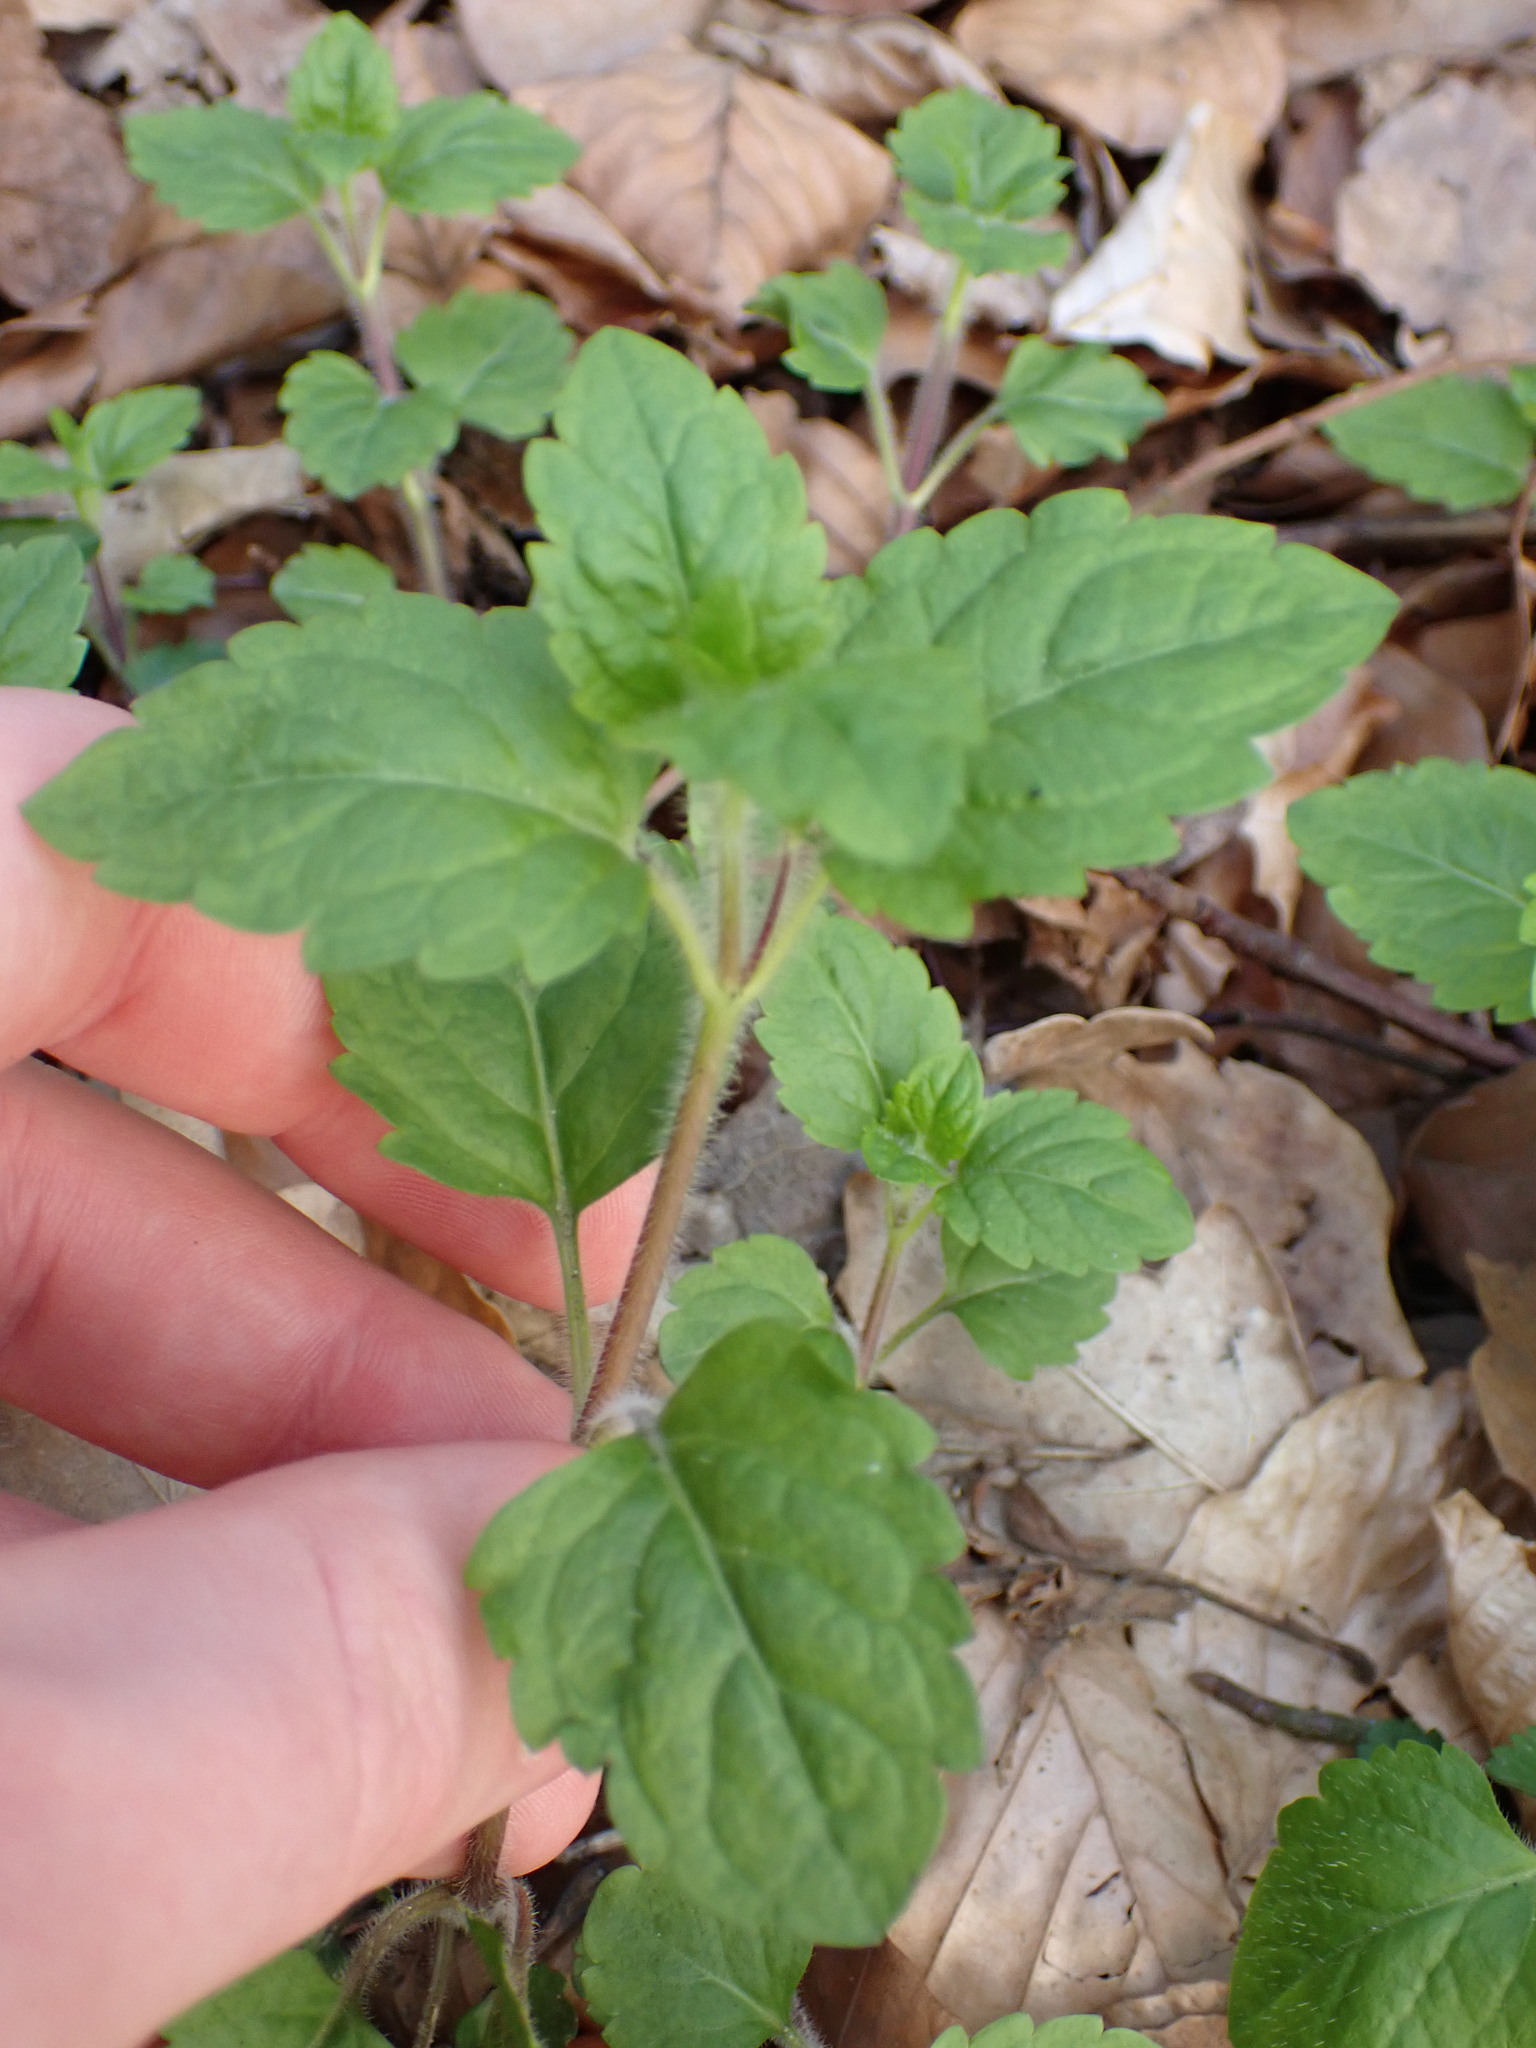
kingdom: Plantae
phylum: Tracheophyta
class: Magnoliopsida
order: Lamiales
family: Plantaginaceae
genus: Veronica
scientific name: Veronica montana
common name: Wood speedwell
